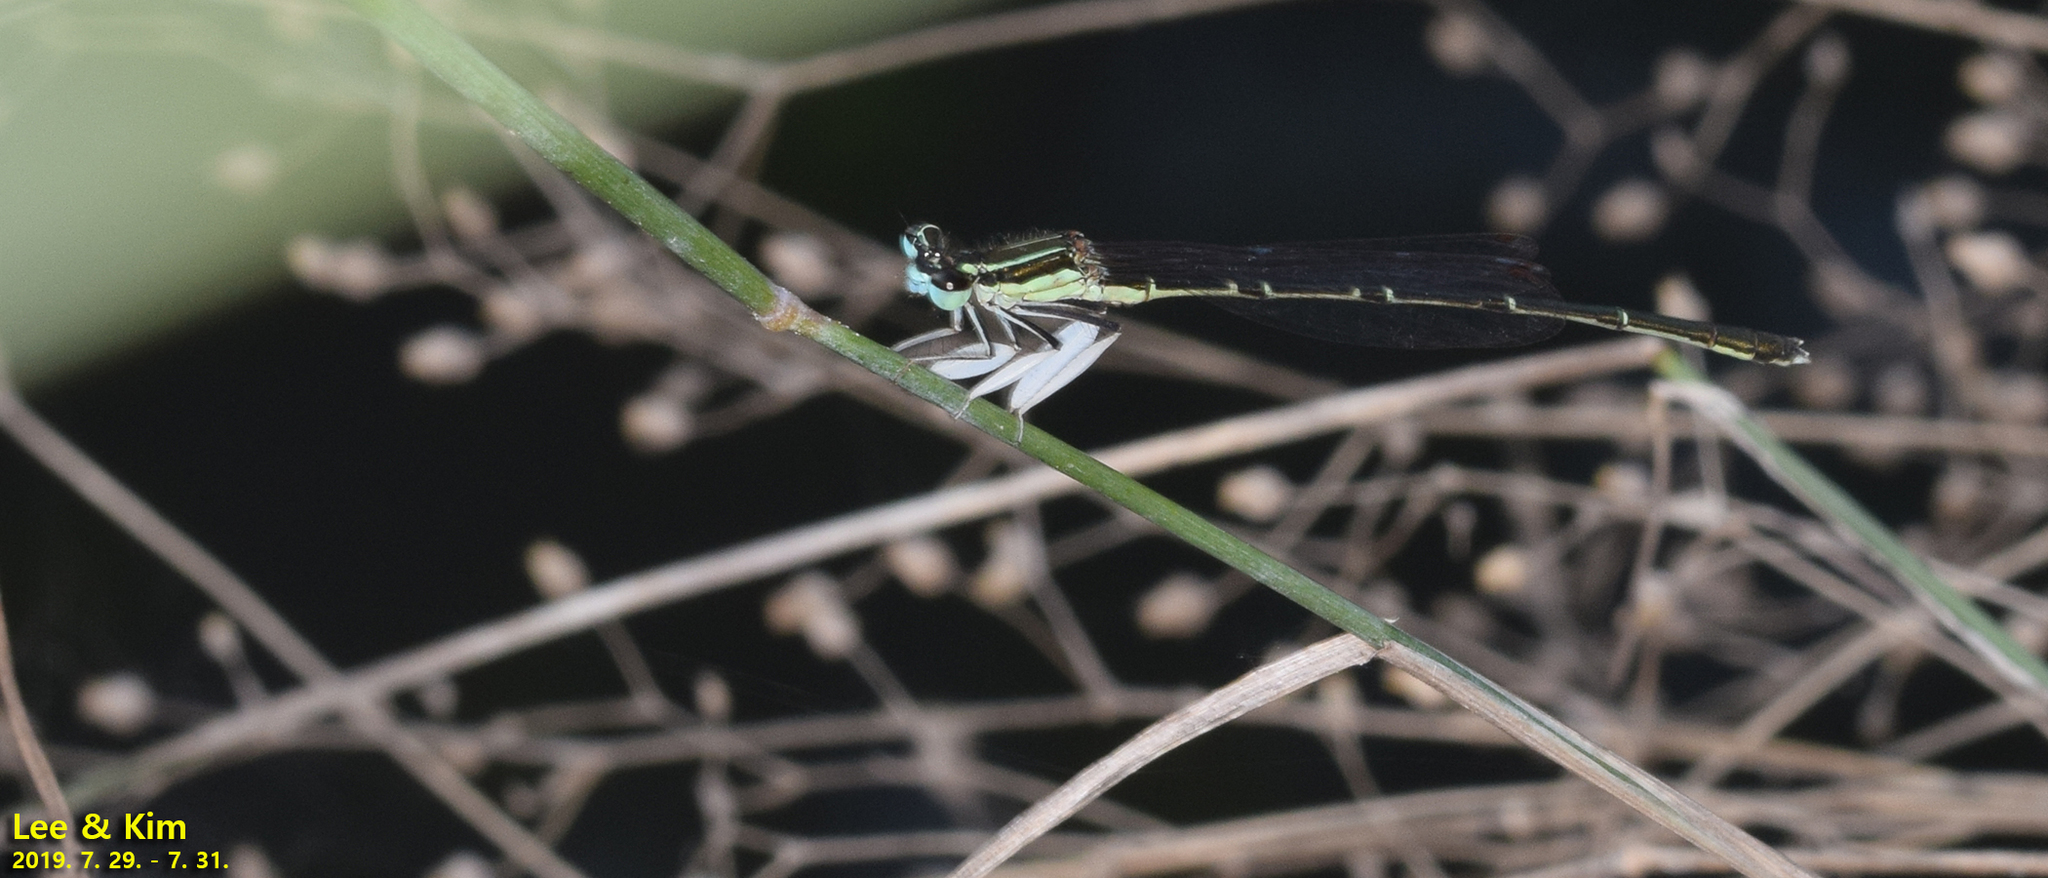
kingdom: Animalia
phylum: Arthropoda
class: Insecta
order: Odonata
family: Platycnemididae
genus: Platycnemis
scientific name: Platycnemis phyllopoda
